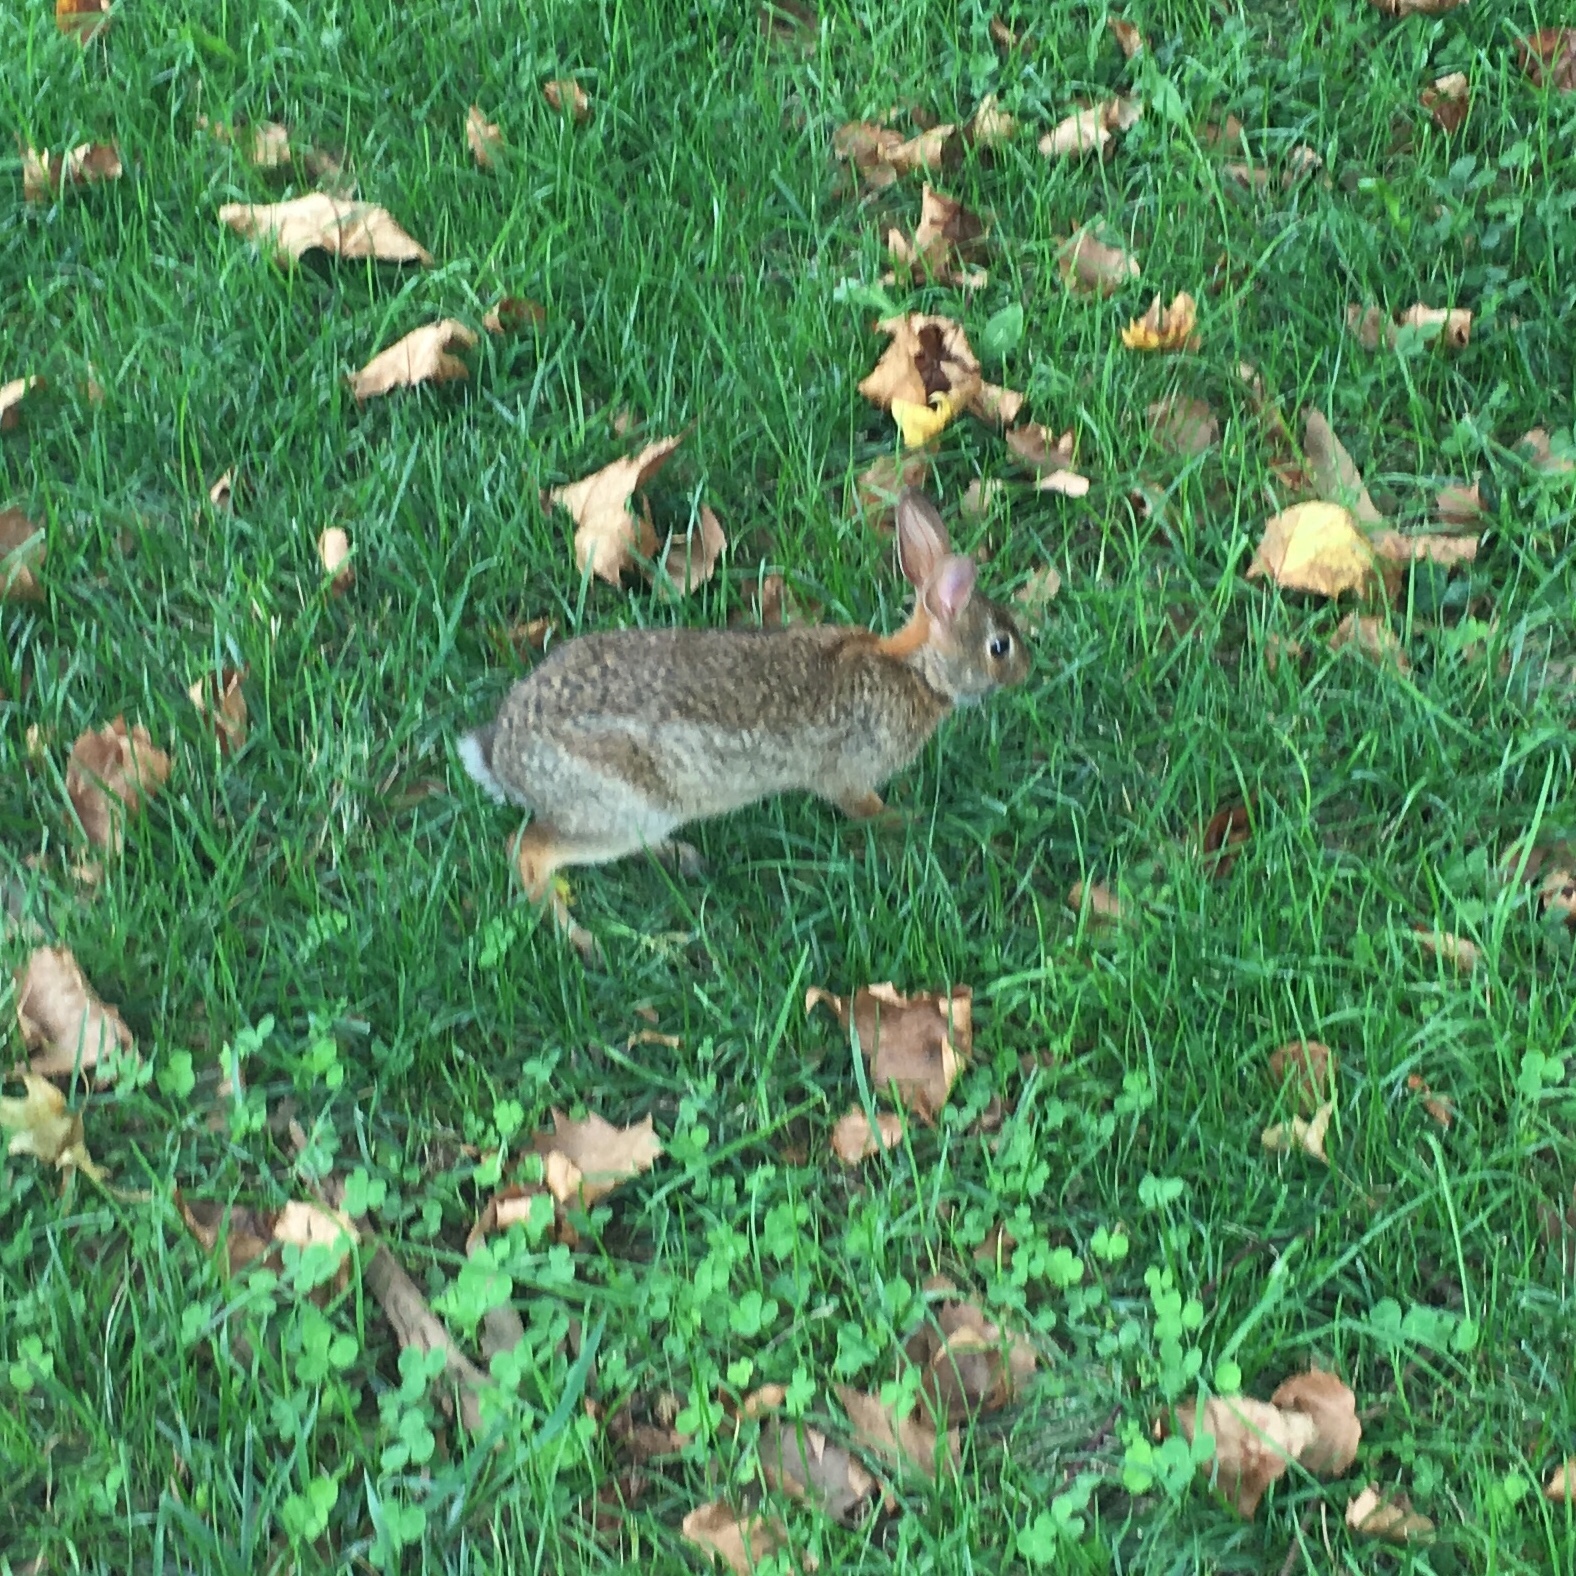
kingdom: Animalia
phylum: Chordata
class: Mammalia
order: Lagomorpha
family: Leporidae
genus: Sylvilagus
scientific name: Sylvilagus floridanus
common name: Eastern cottontail
